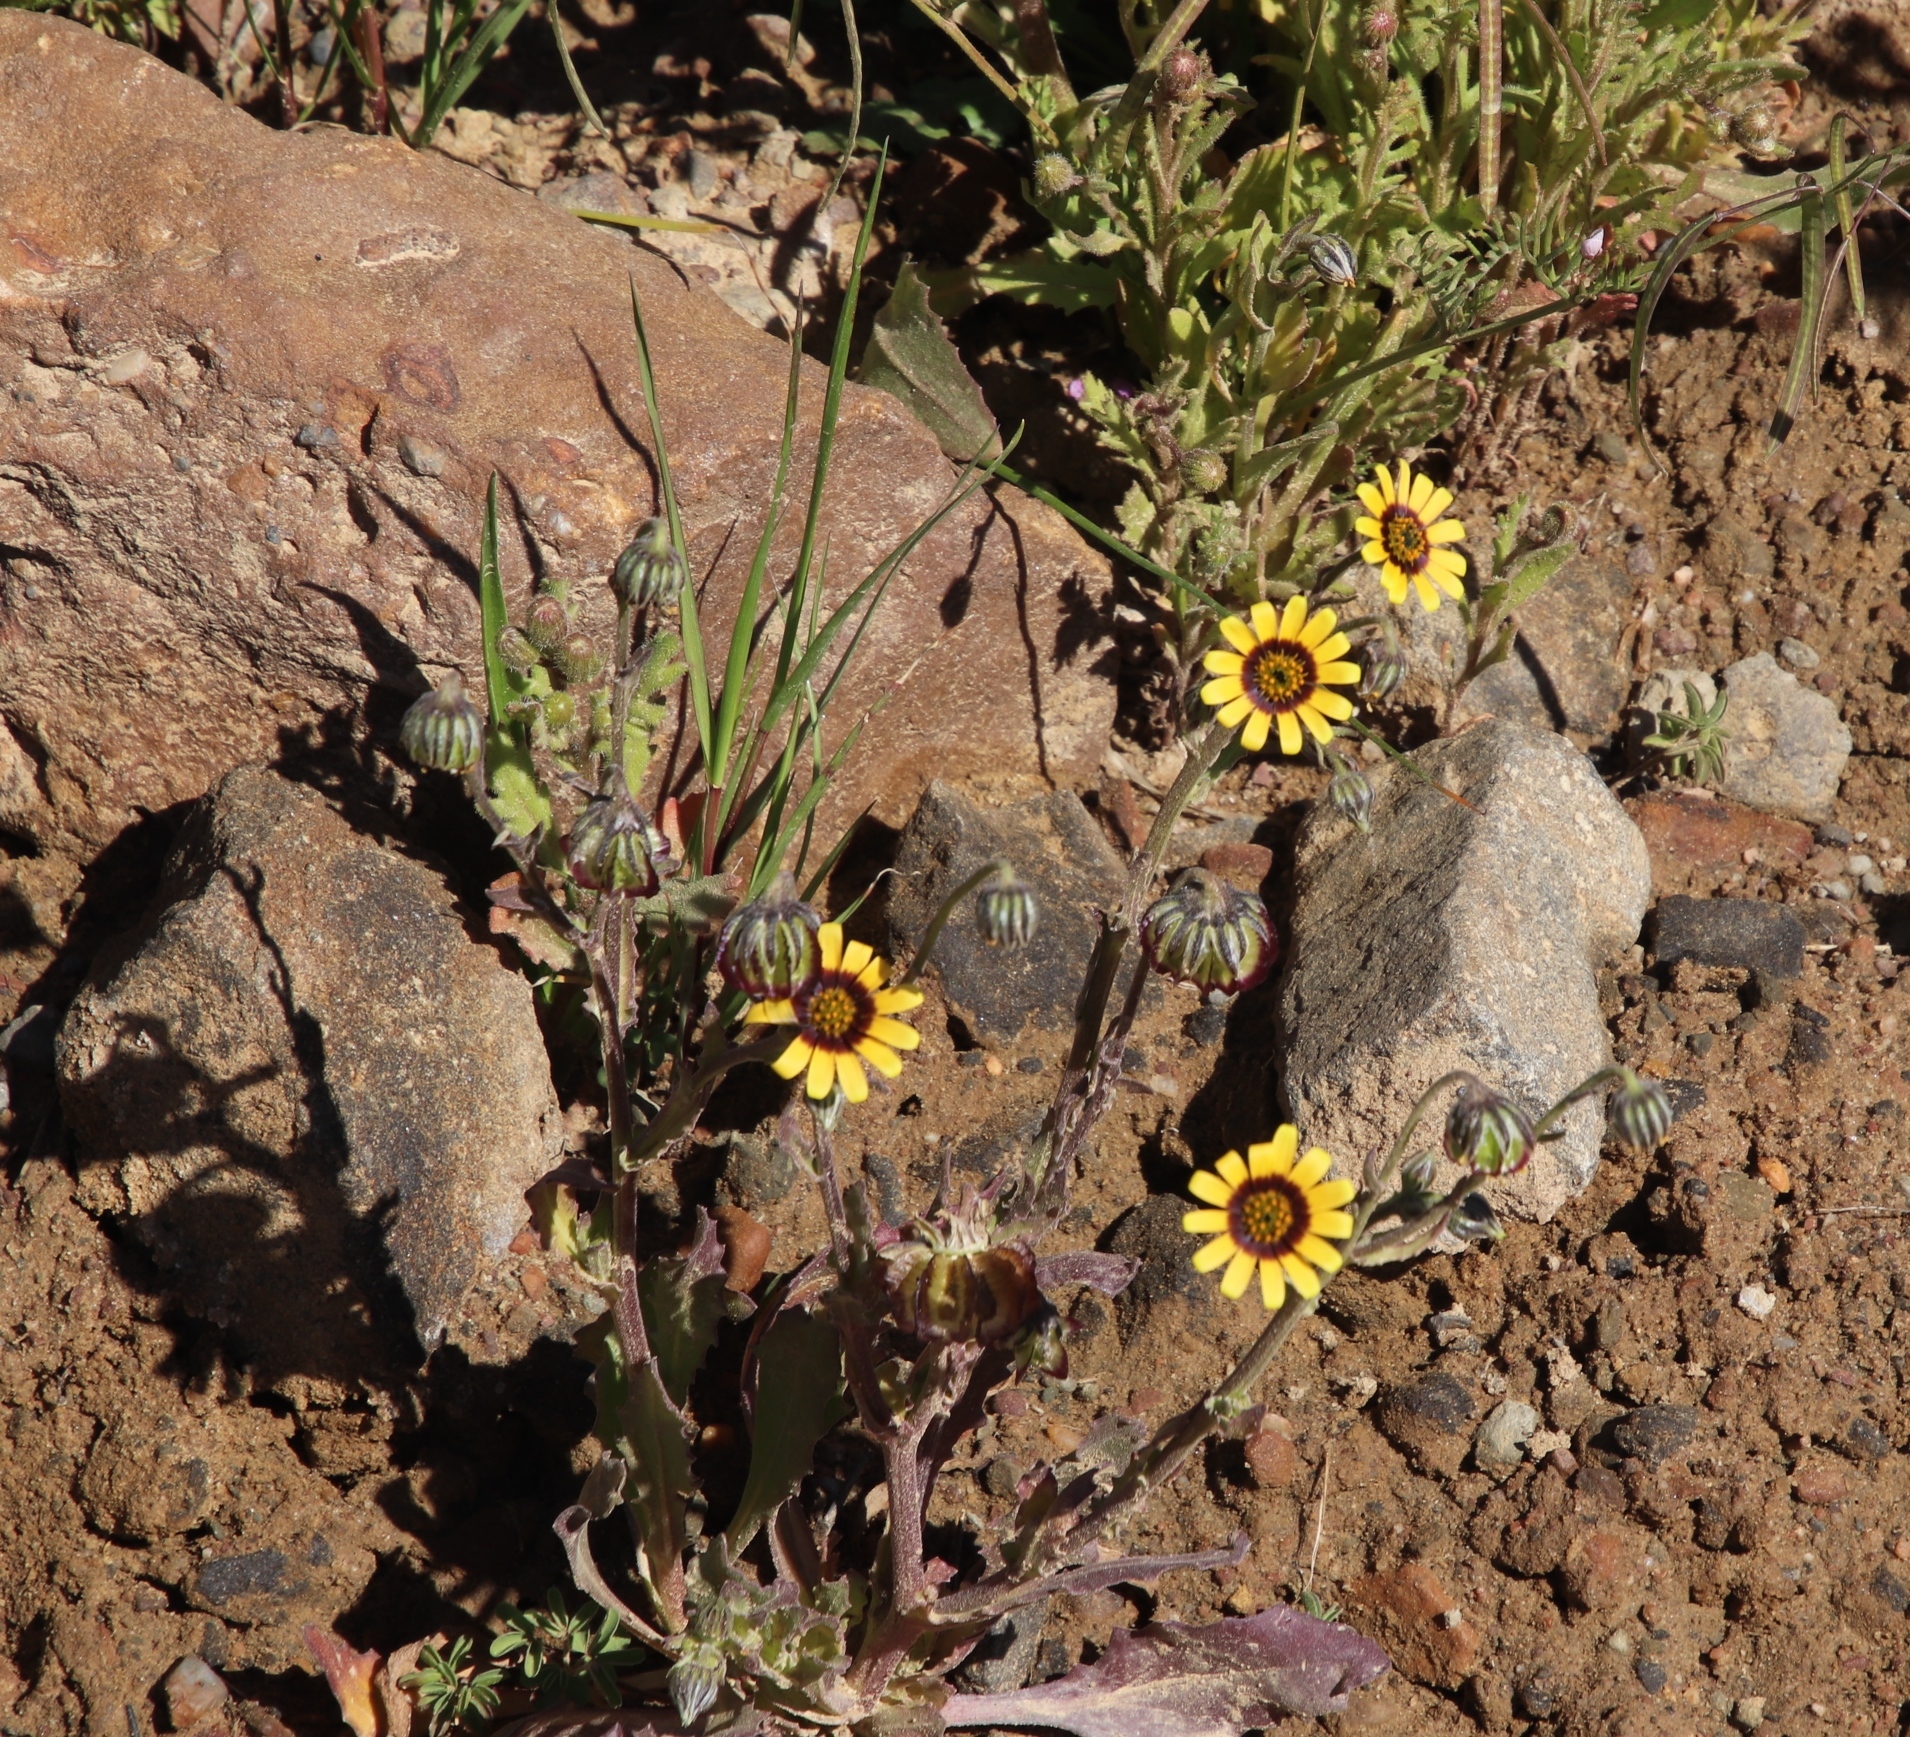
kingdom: Plantae
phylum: Tracheophyta
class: Magnoliopsida
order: Asterales
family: Asteraceae
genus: Osteospermum
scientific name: Osteospermum monstrosum
